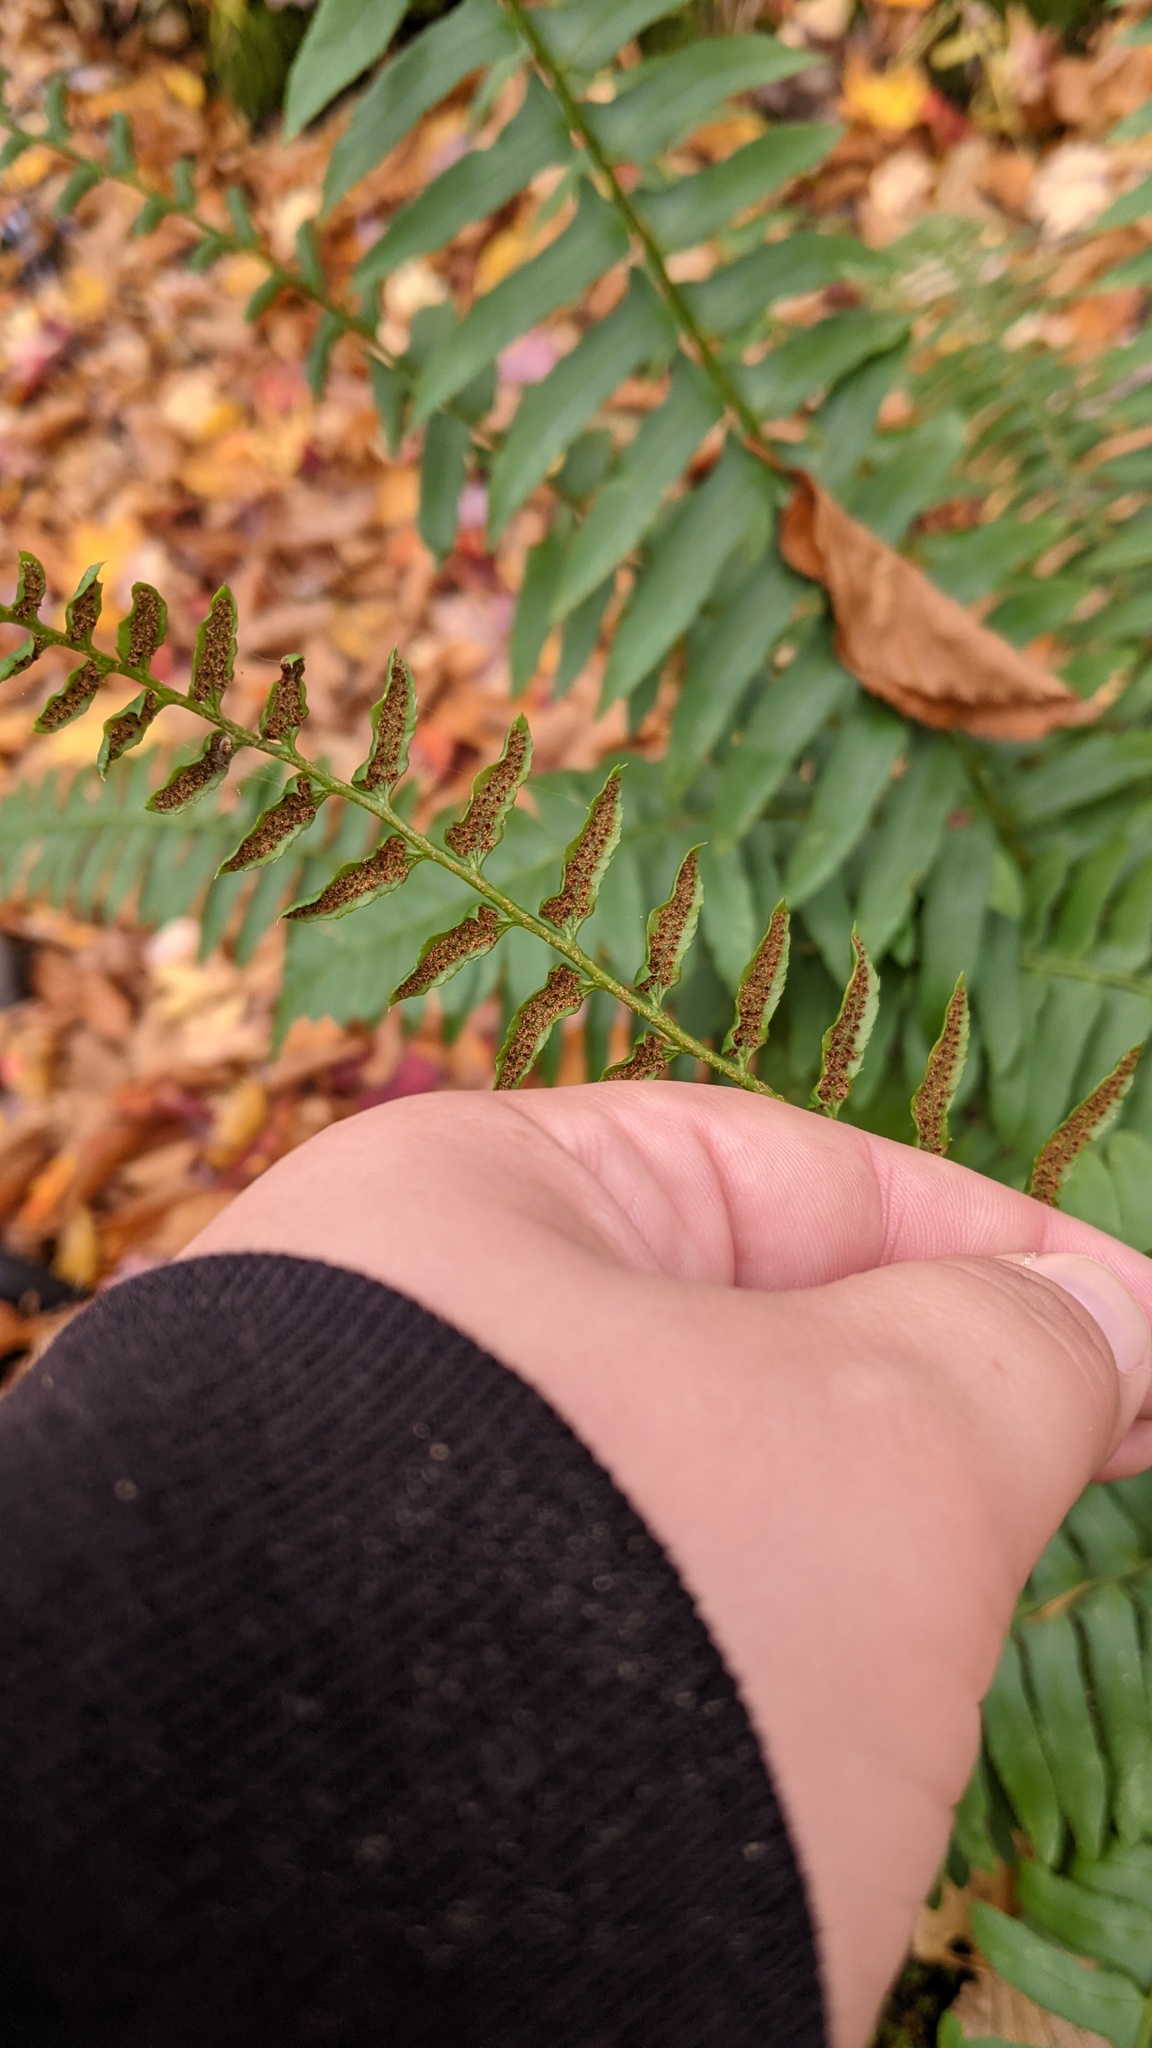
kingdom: Plantae
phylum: Tracheophyta
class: Polypodiopsida
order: Polypodiales
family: Dryopteridaceae
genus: Polystichum
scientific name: Polystichum acrostichoides
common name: Christmas fern
